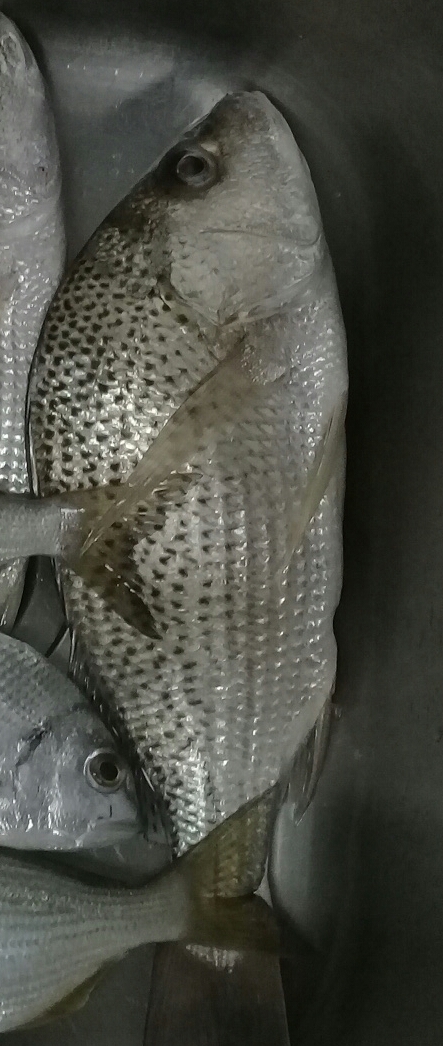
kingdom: Animalia
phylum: Chordata
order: Perciformes
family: Haemulidae
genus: Pomadasys
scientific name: Pomadasys argenteus
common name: Silver grunt
